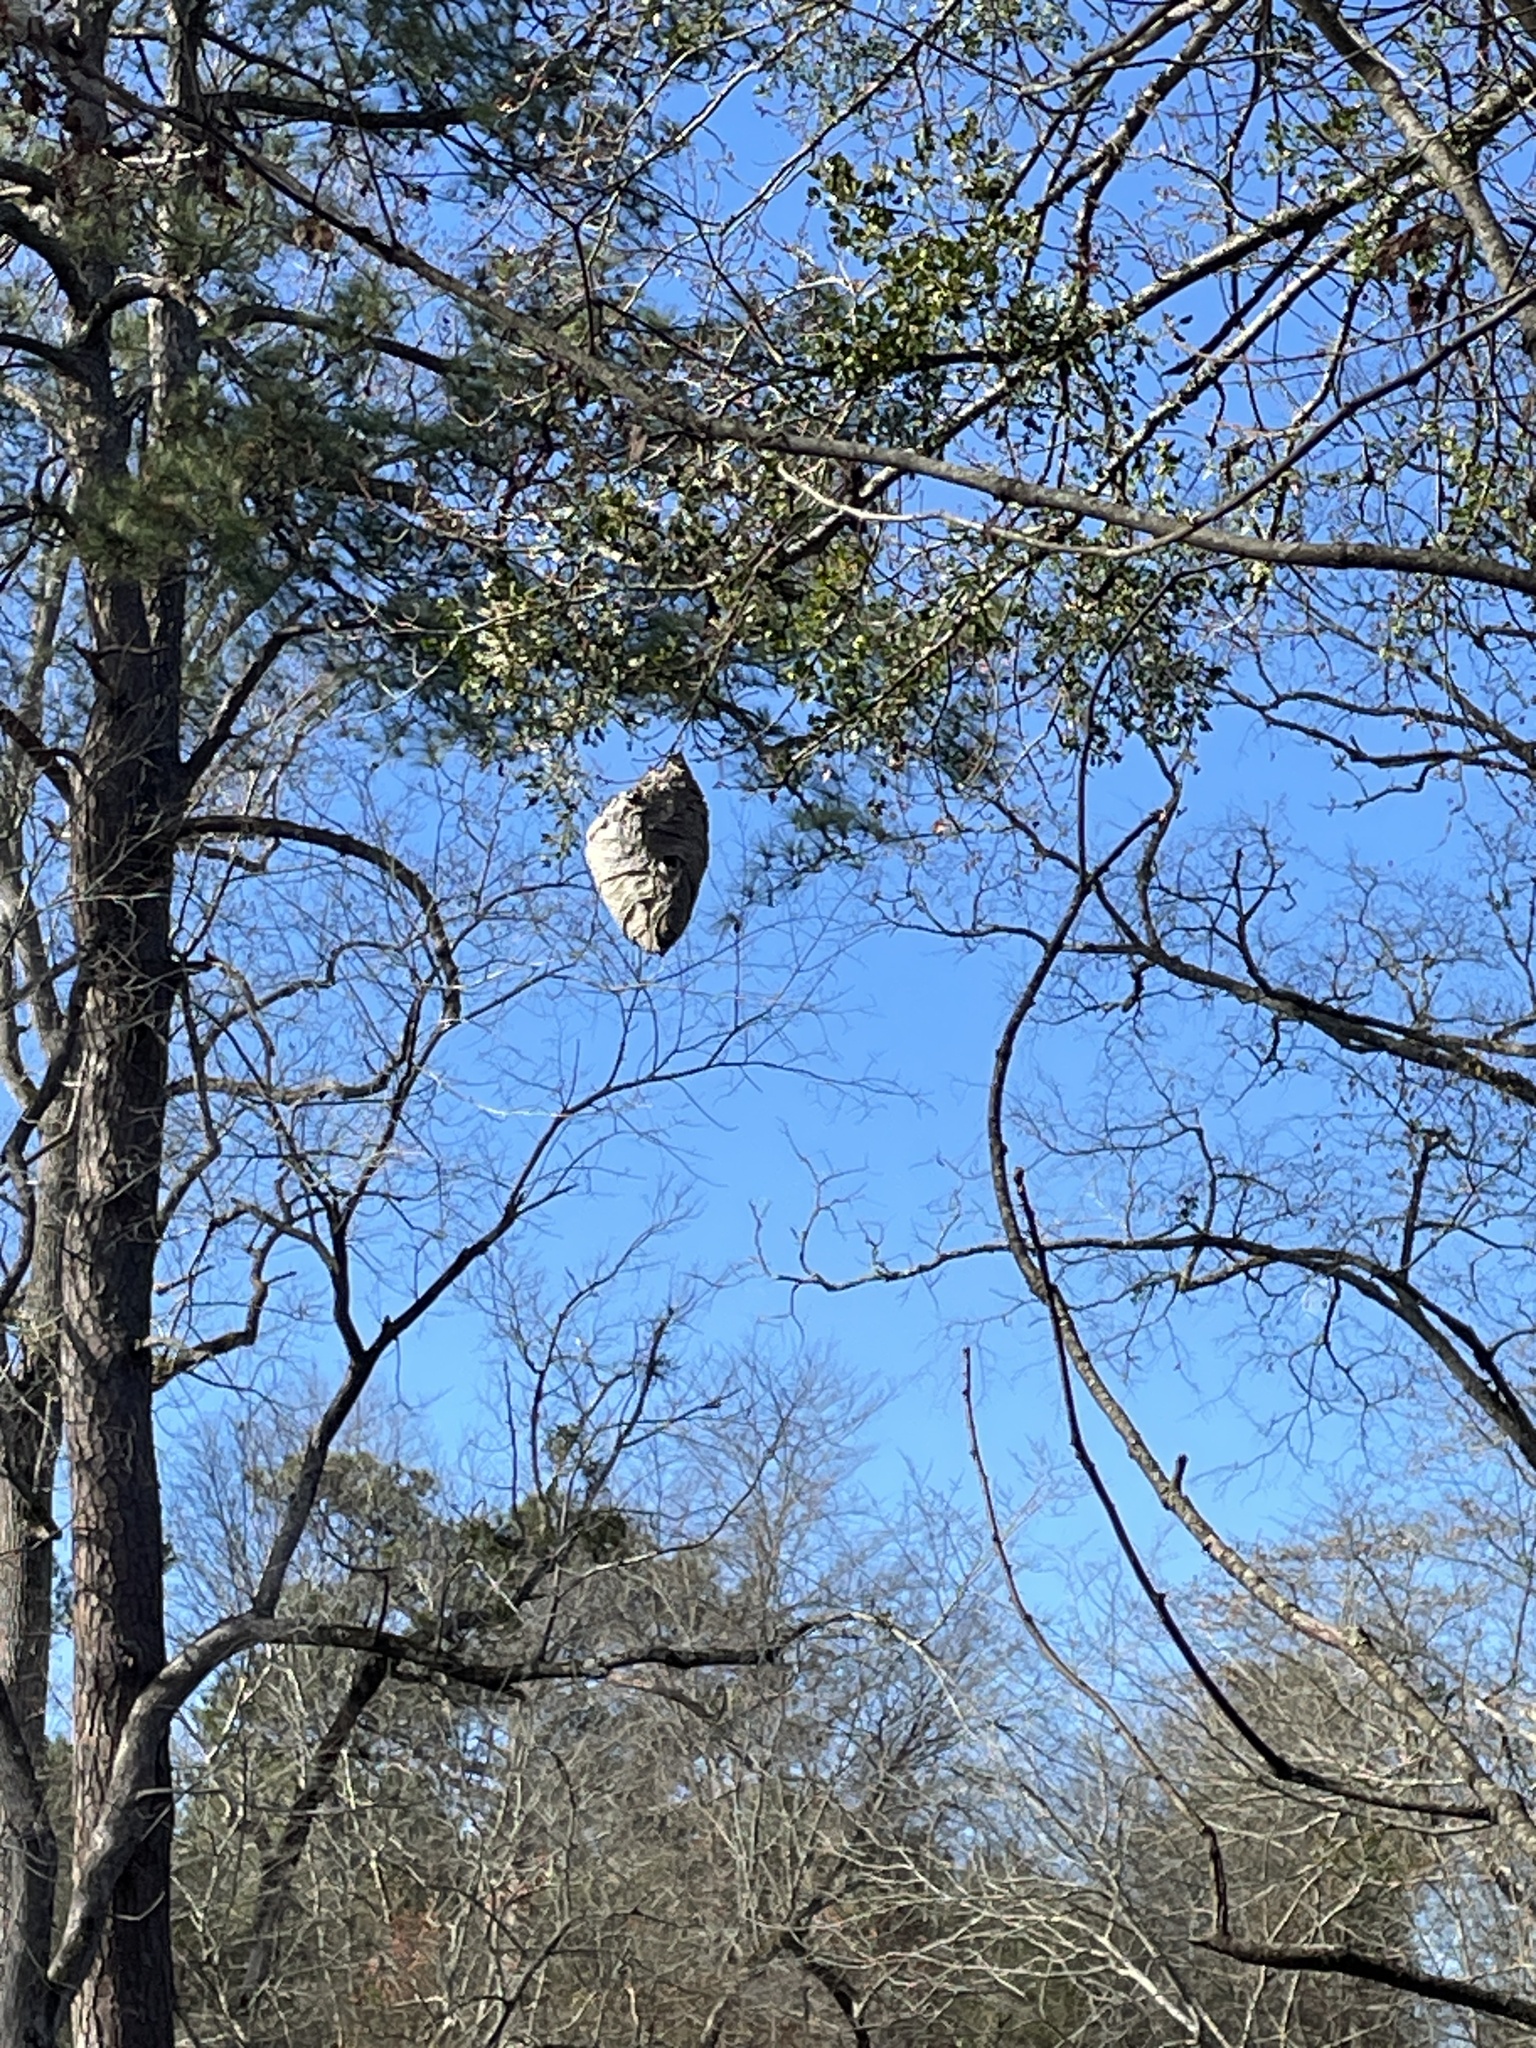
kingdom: Animalia
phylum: Arthropoda
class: Insecta
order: Hymenoptera
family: Vespidae
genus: Dolichovespula
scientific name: Dolichovespula maculata
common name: Bald-faced hornet
